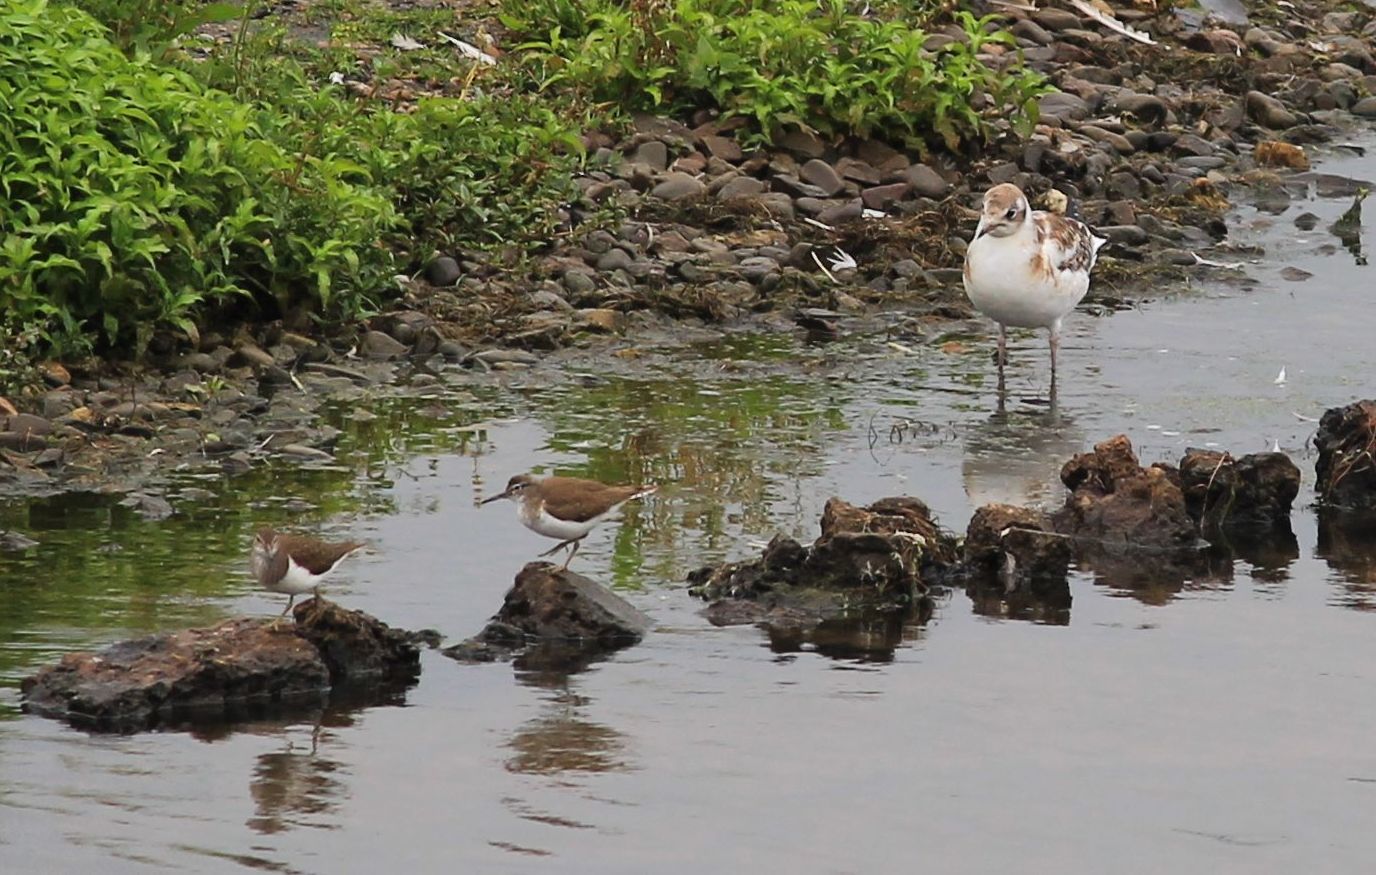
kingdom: Animalia
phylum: Chordata
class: Aves
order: Charadriiformes
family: Scolopacidae
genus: Actitis
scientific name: Actitis hypoleucos
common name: Common sandpiper
